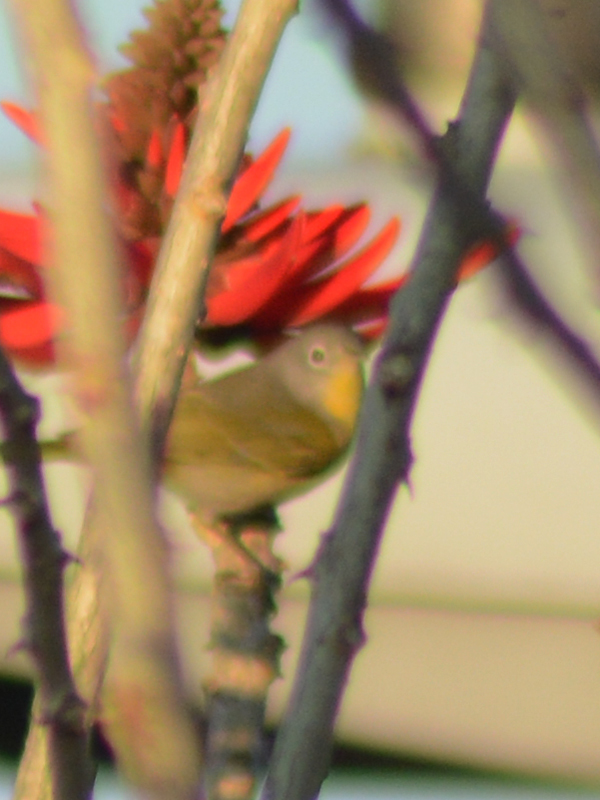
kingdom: Animalia
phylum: Chordata
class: Aves
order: Passeriformes
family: Parulidae
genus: Leiothlypis
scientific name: Leiothlypis ruficapilla
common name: Nashville warbler
